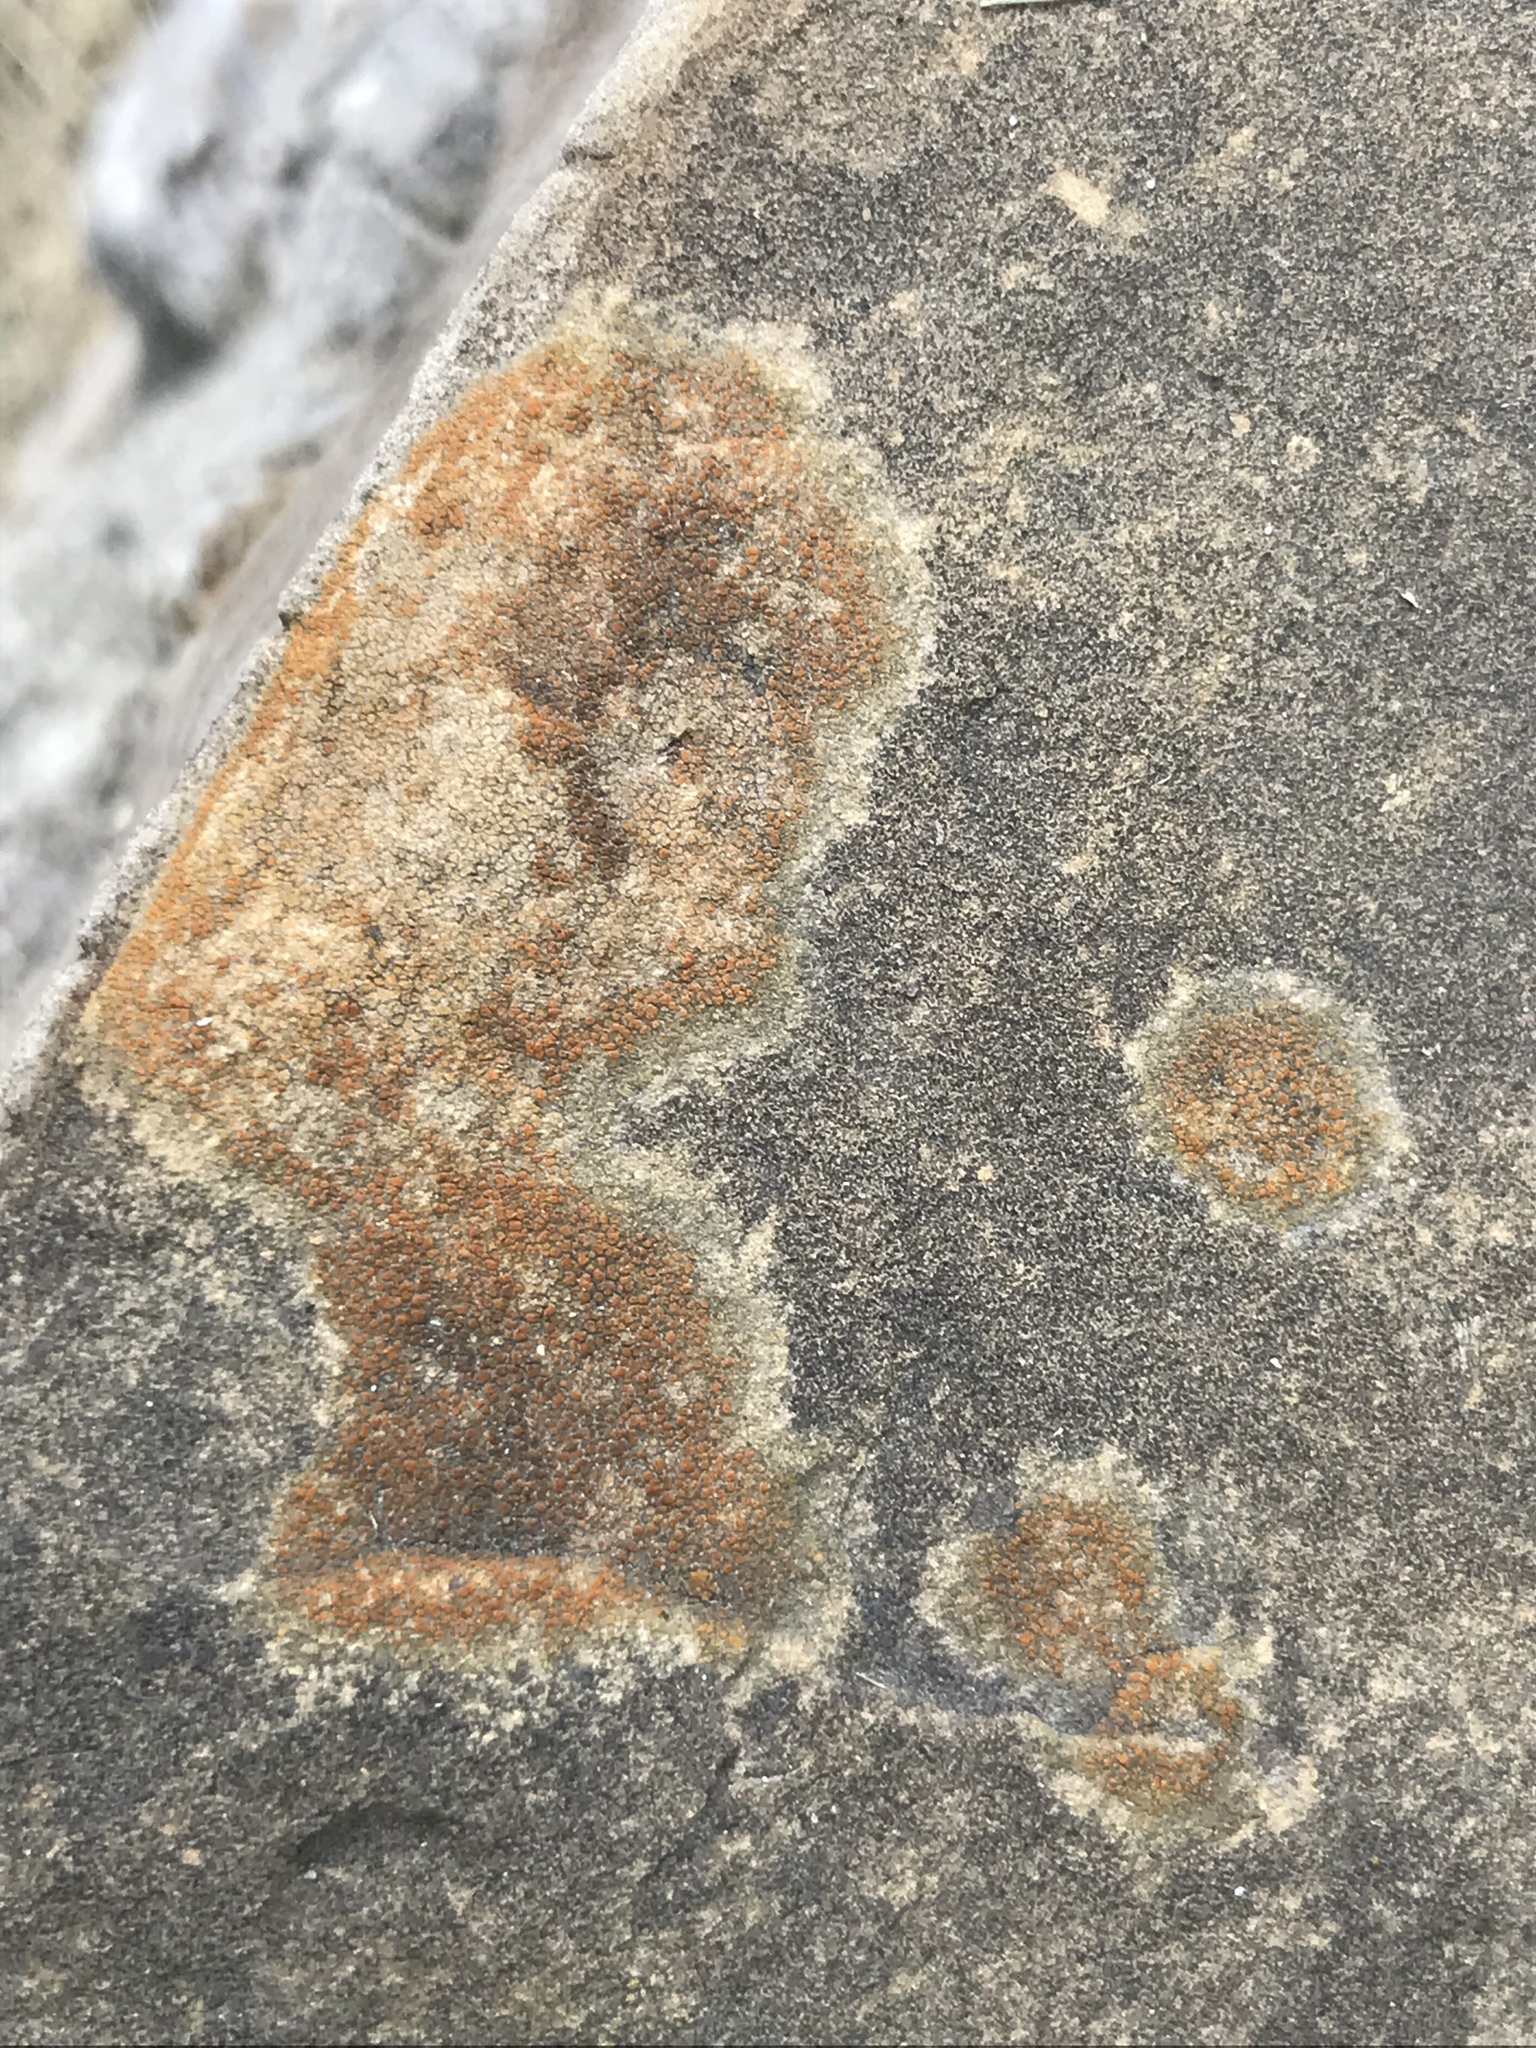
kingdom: Fungi
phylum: Ascomycota
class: Lecanoromycetes
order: Teloschistales
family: Teloschistaceae
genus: Xanthocarpia
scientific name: Xanthocarpia feracissima
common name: Sidewalk firedot
